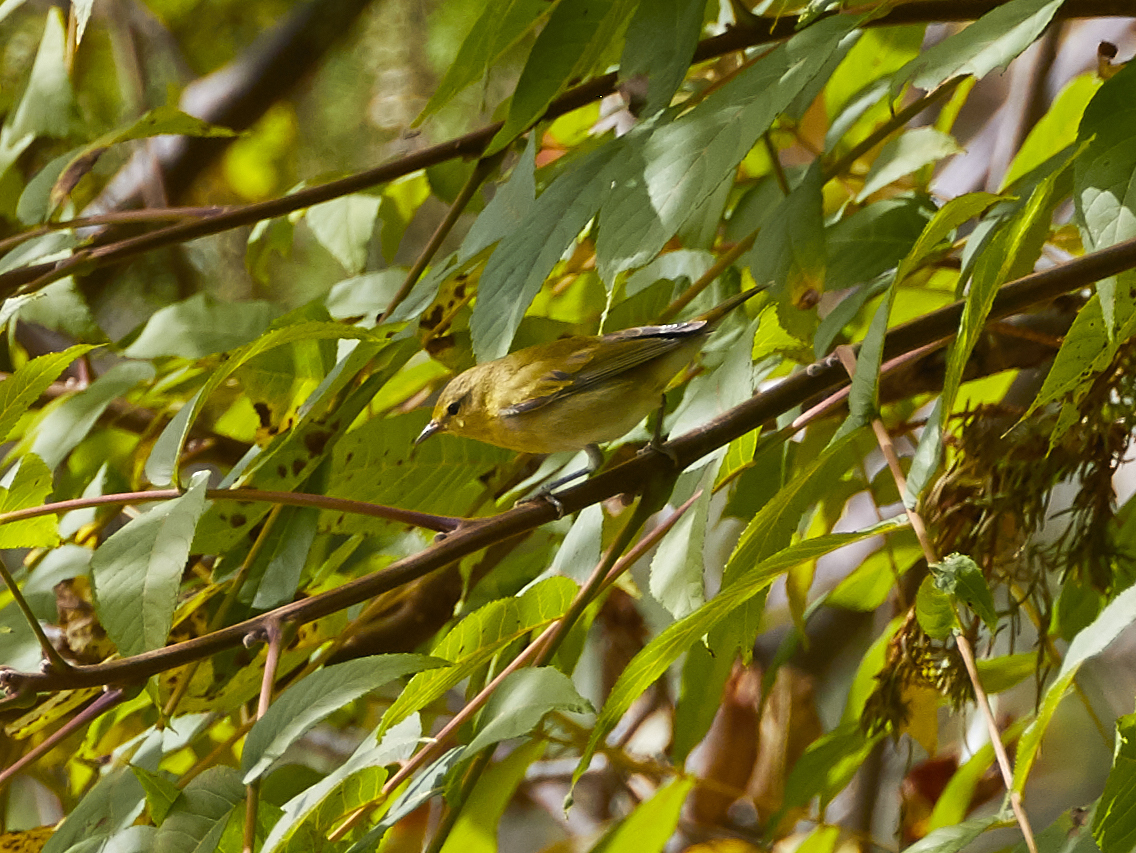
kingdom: Animalia
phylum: Chordata
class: Aves
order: Passeriformes
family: Parulidae
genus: Leiothlypis
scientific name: Leiothlypis peregrina
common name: Tennessee warbler
